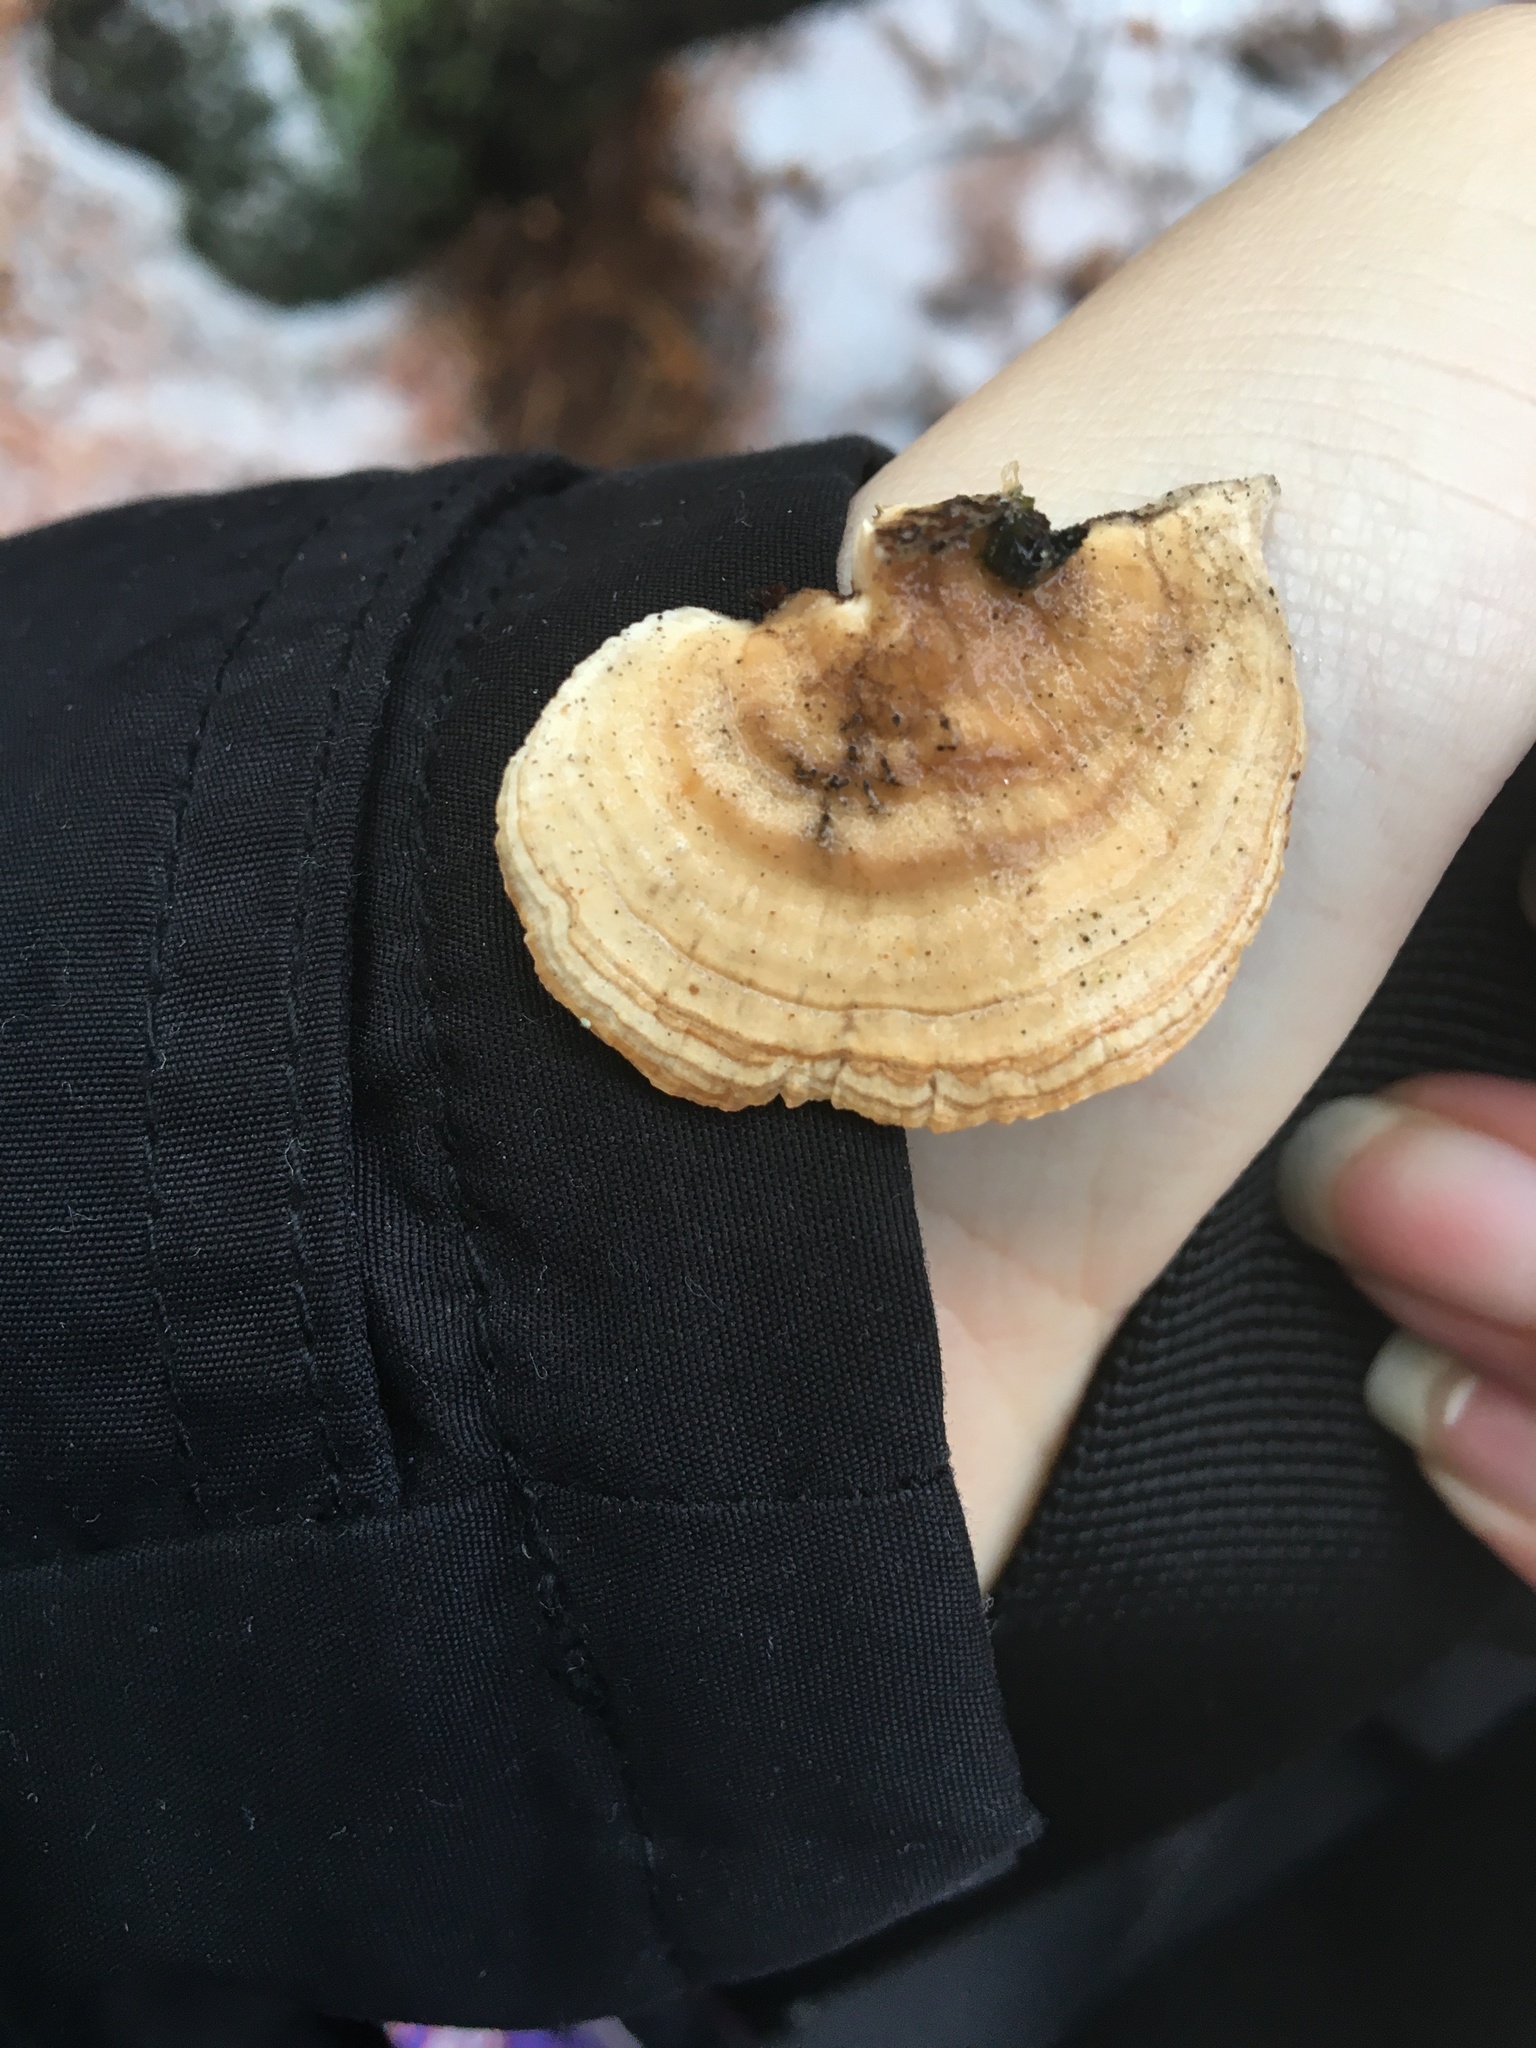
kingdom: Fungi
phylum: Basidiomycota
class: Agaricomycetes
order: Polyporales
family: Polyporaceae
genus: Trametes
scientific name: Trametes ochracea
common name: Ochre bracket
